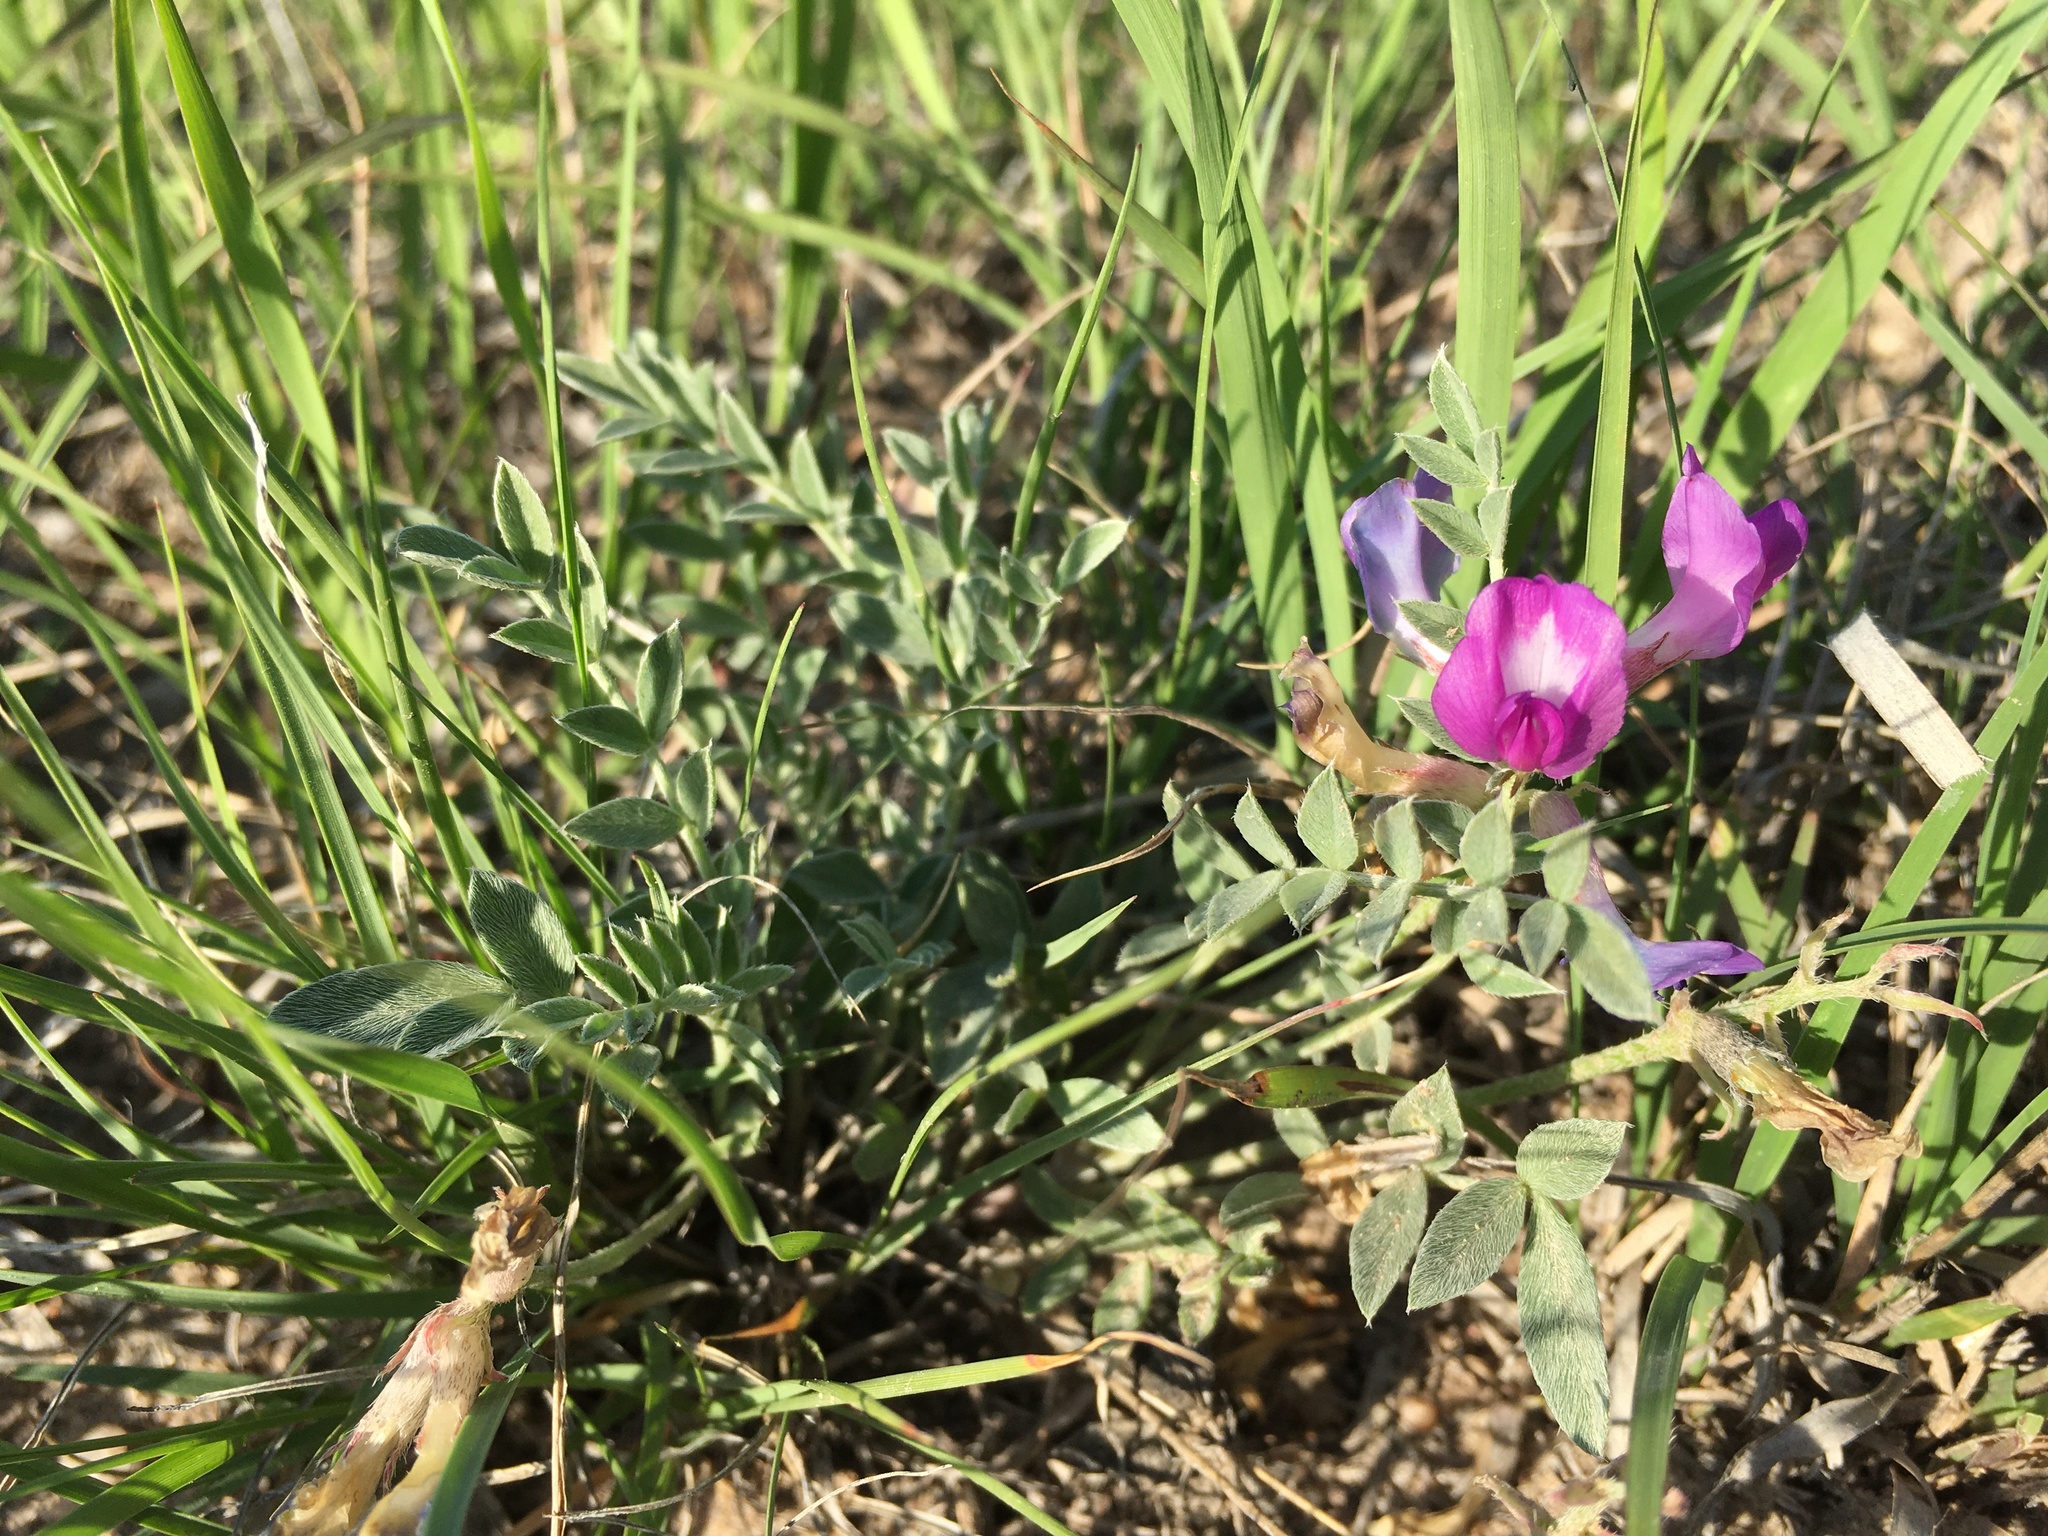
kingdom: Plantae
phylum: Tracheophyta
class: Magnoliopsida
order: Fabales
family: Fabaceae
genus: Astragalus
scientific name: Astragalus missouriensis
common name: Missouri milk-vetch
